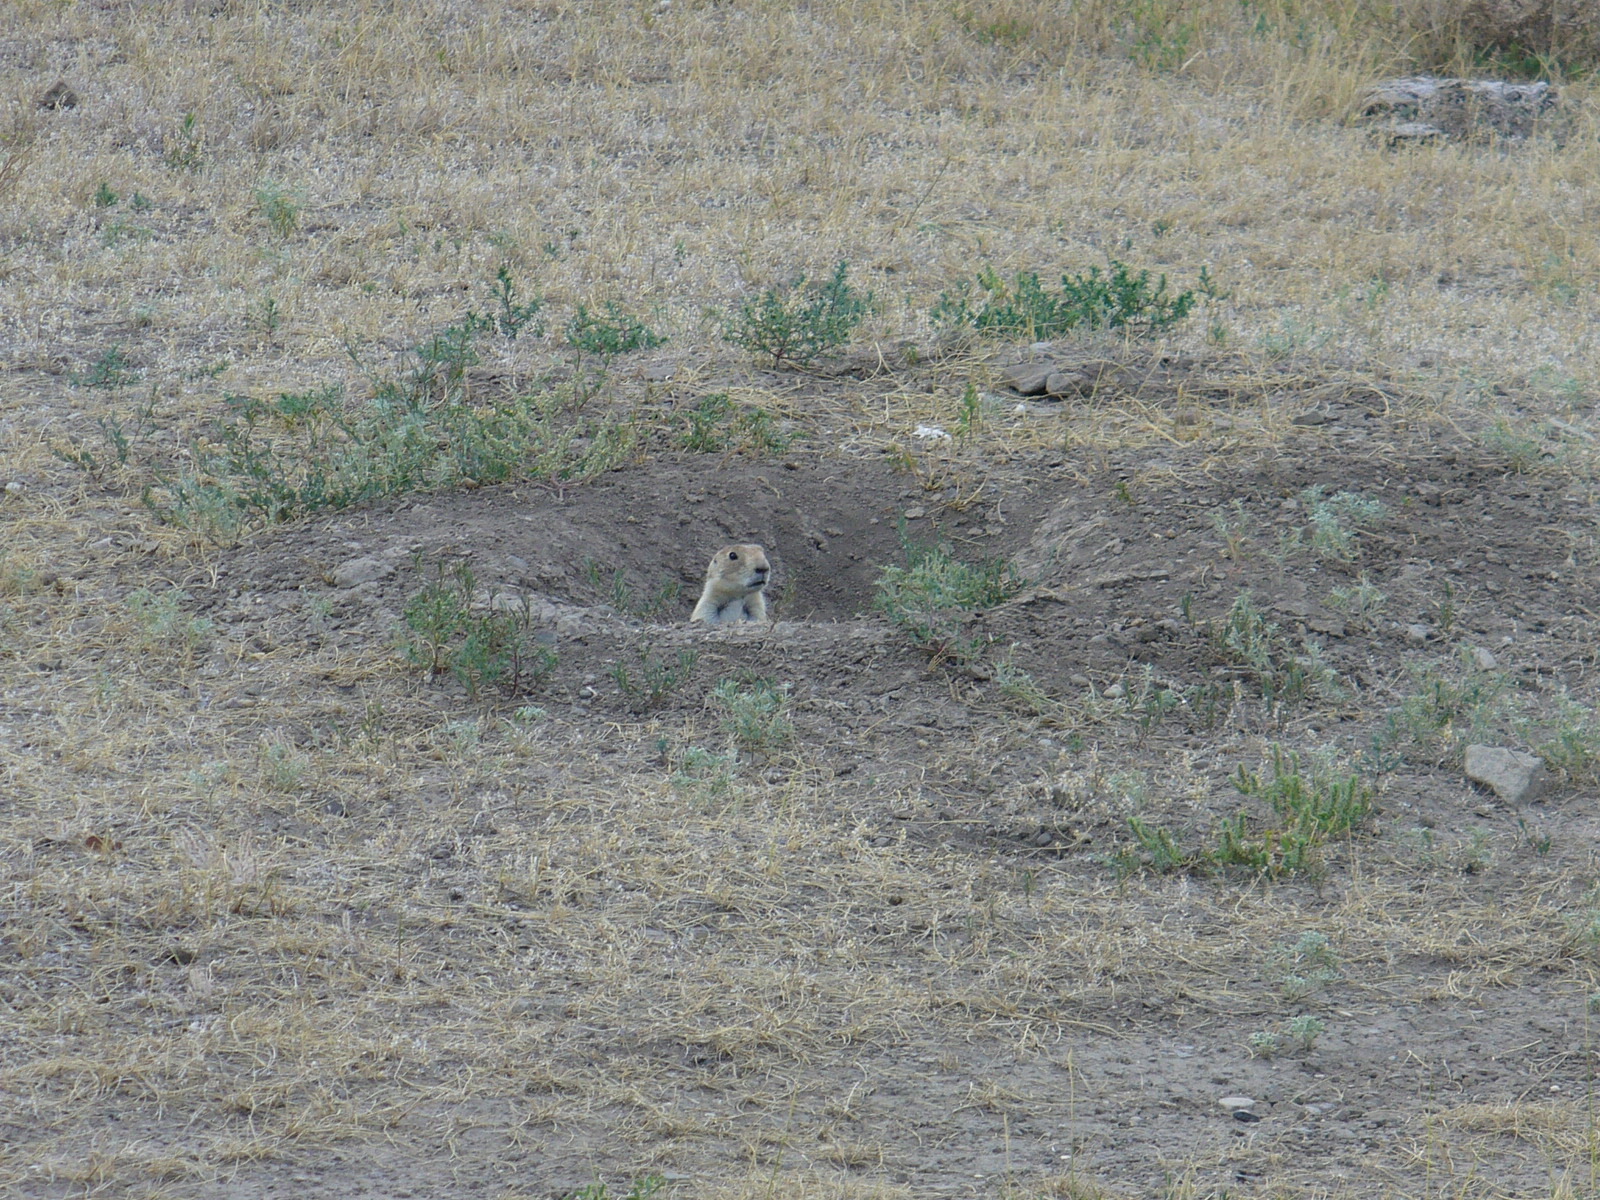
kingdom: Animalia
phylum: Chordata
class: Mammalia
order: Rodentia
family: Sciuridae
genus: Cynomys
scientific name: Cynomys ludovicianus
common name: Black-tailed prairie dog
